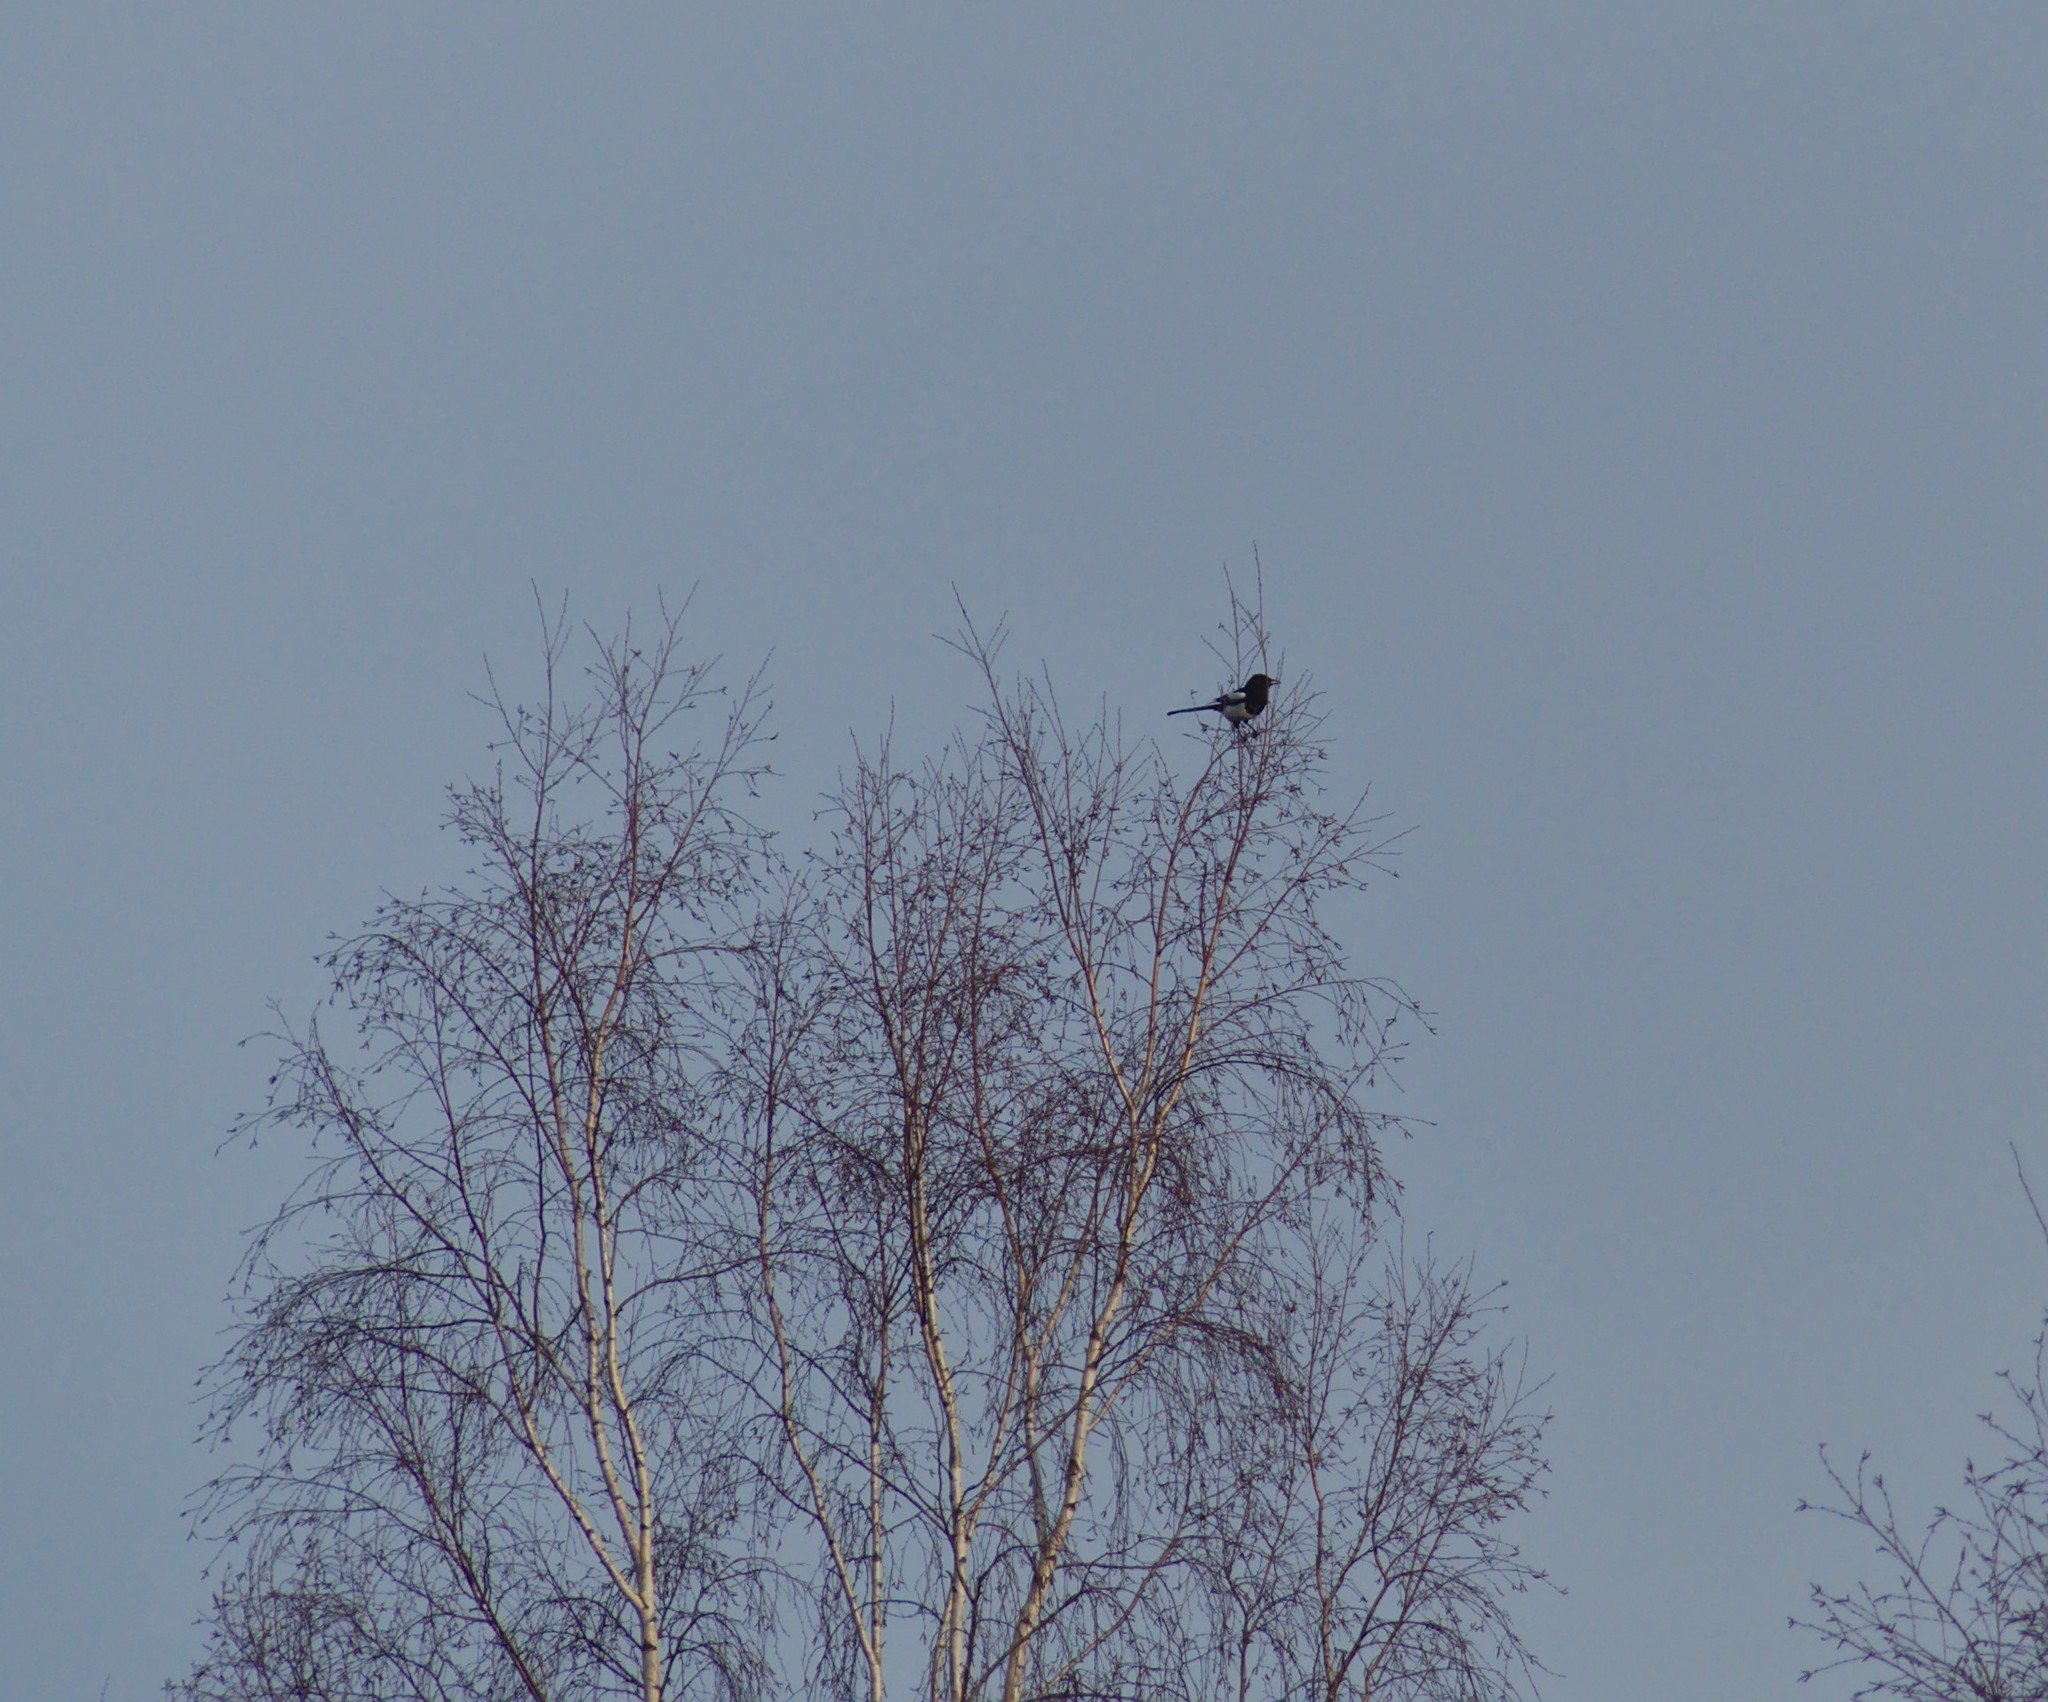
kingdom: Animalia
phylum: Chordata
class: Aves
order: Passeriformes
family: Corvidae
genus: Pica
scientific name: Pica pica
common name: Eurasian magpie
